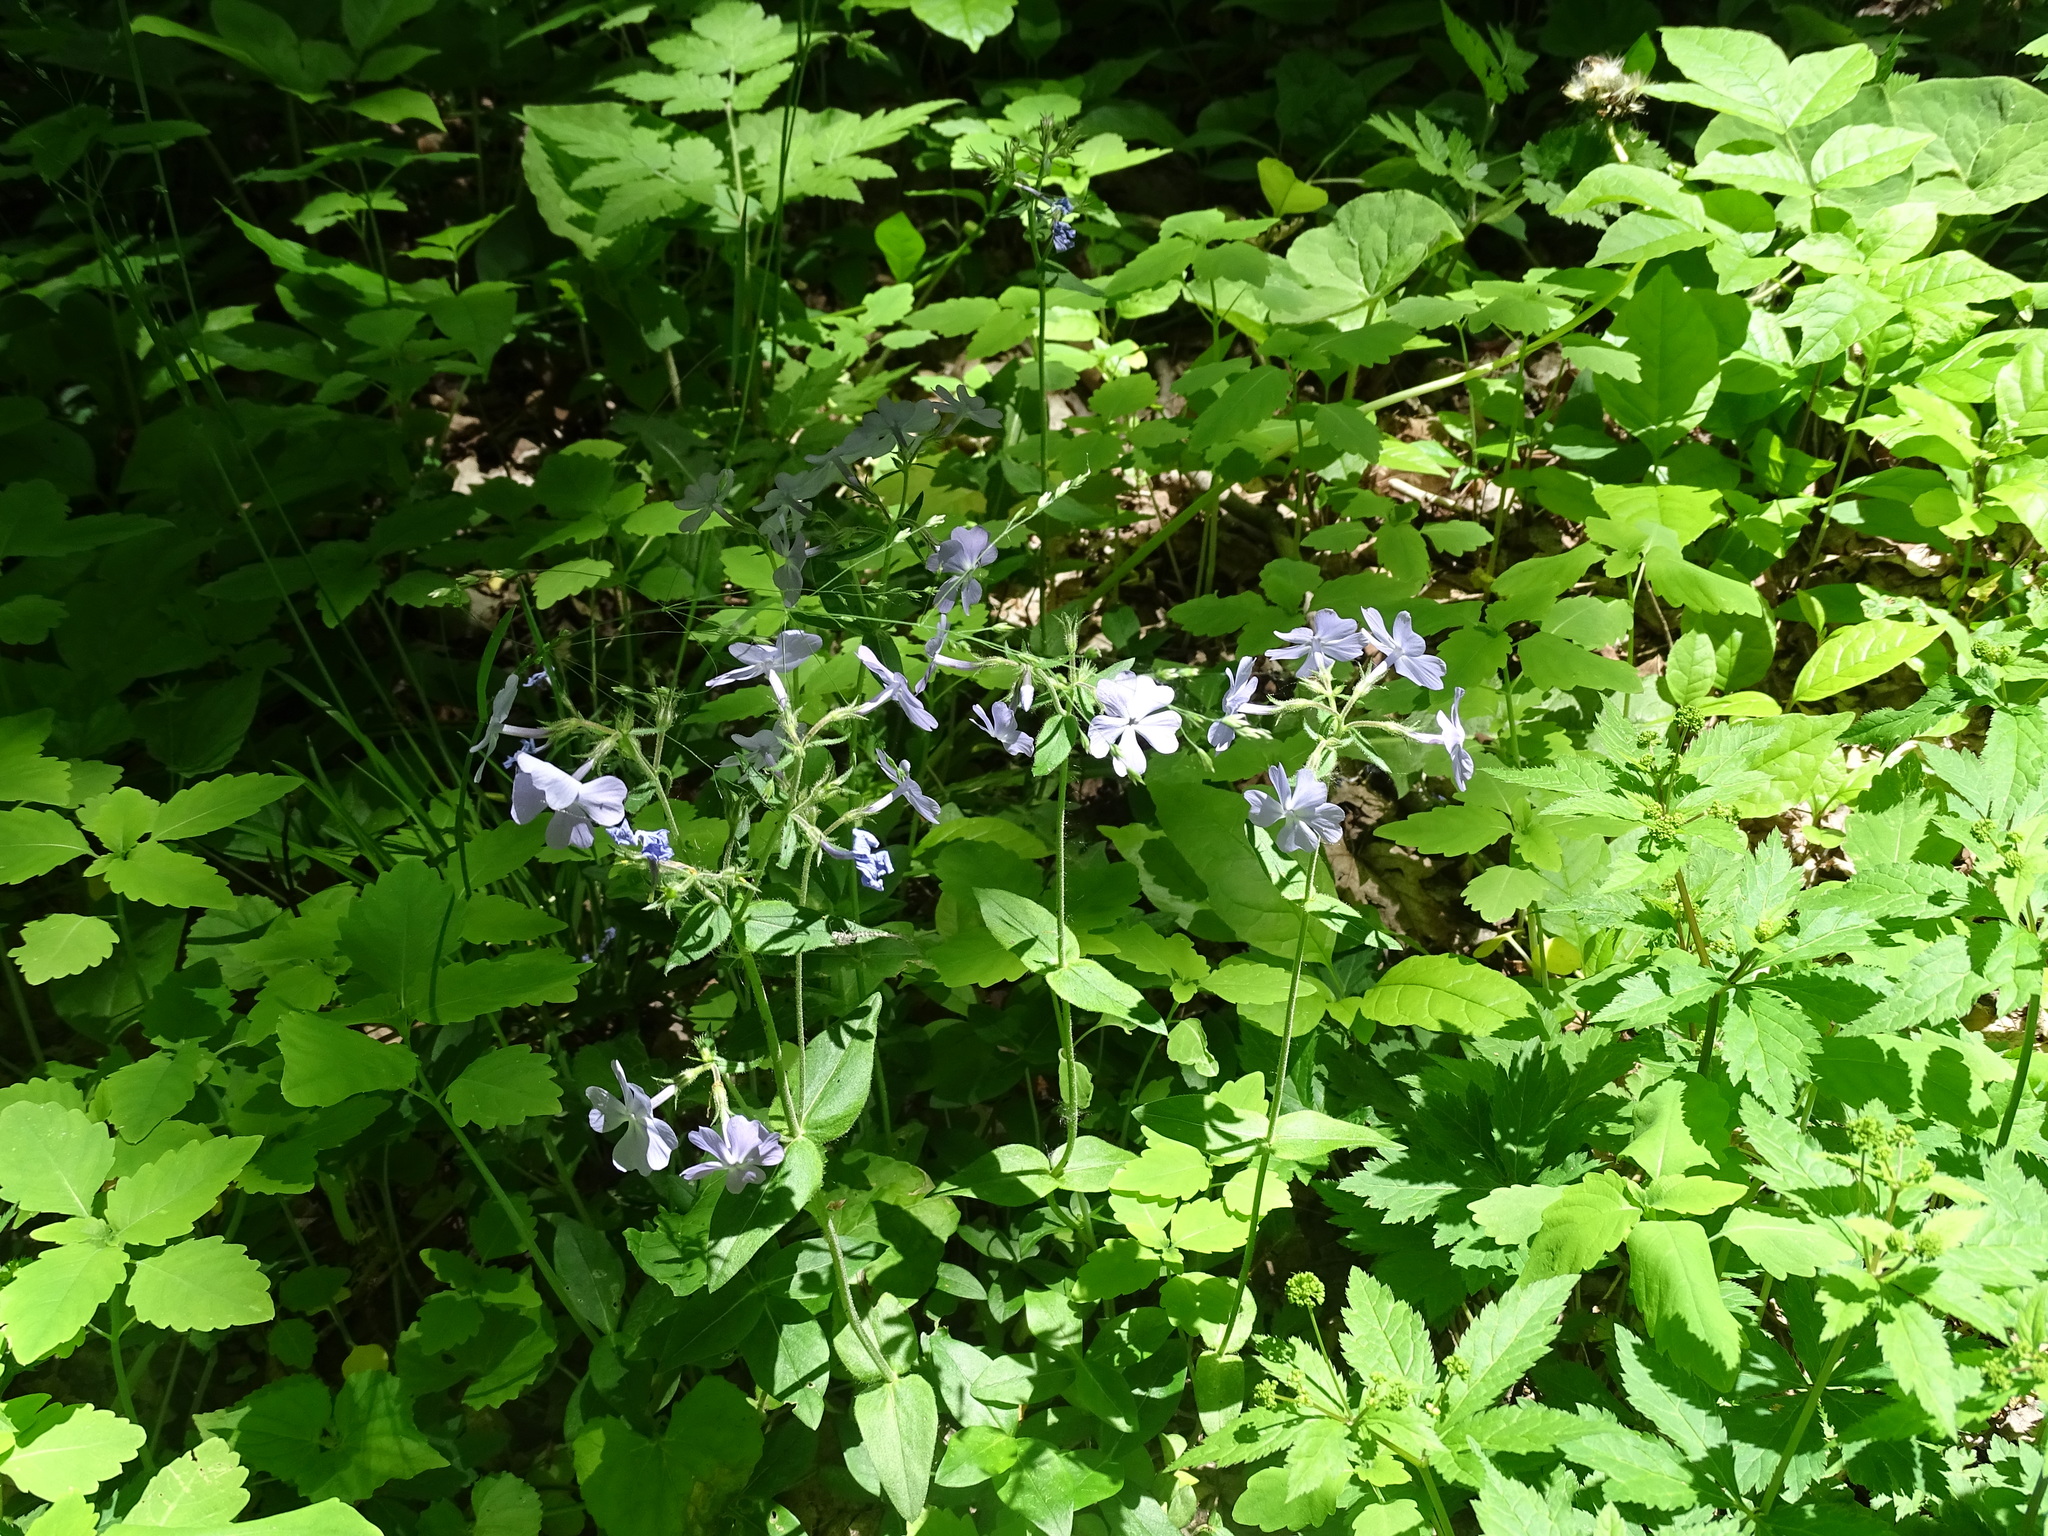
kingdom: Plantae
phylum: Tracheophyta
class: Magnoliopsida
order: Ericales
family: Polemoniaceae
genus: Phlox
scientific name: Phlox divaricata
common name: Blue phlox
